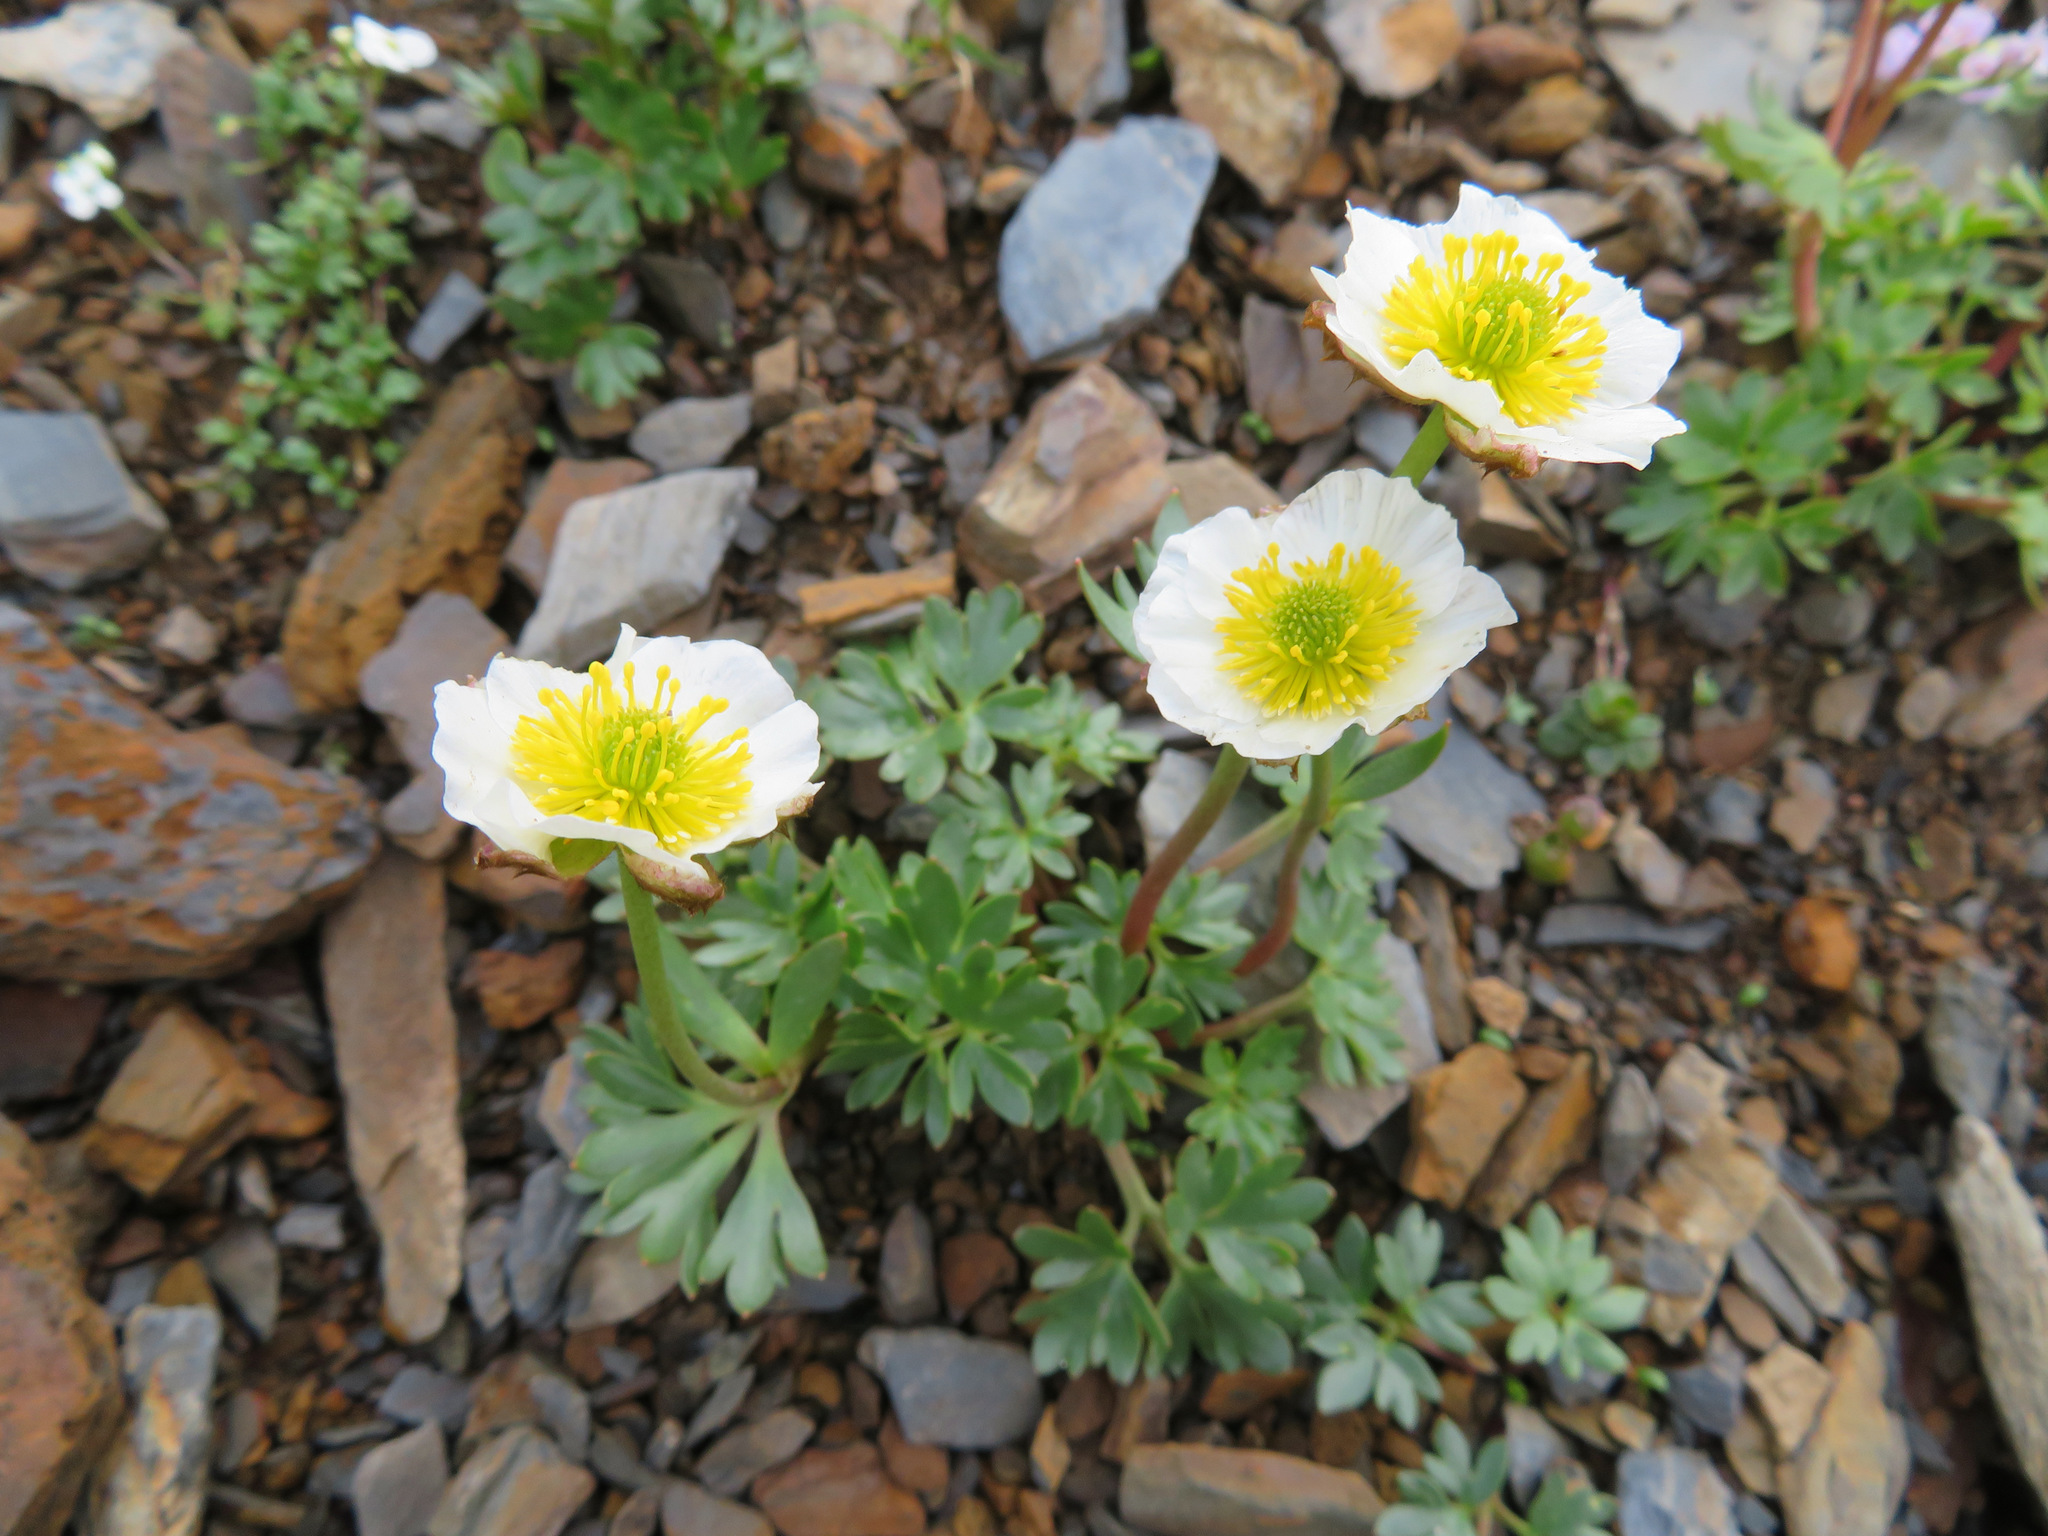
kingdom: Plantae
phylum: Tracheophyta
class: Magnoliopsida
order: Ranunculales
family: Ranunculaceae
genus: Ranunculus
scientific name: Ranunculus glacialis
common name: Glacier buttercup
